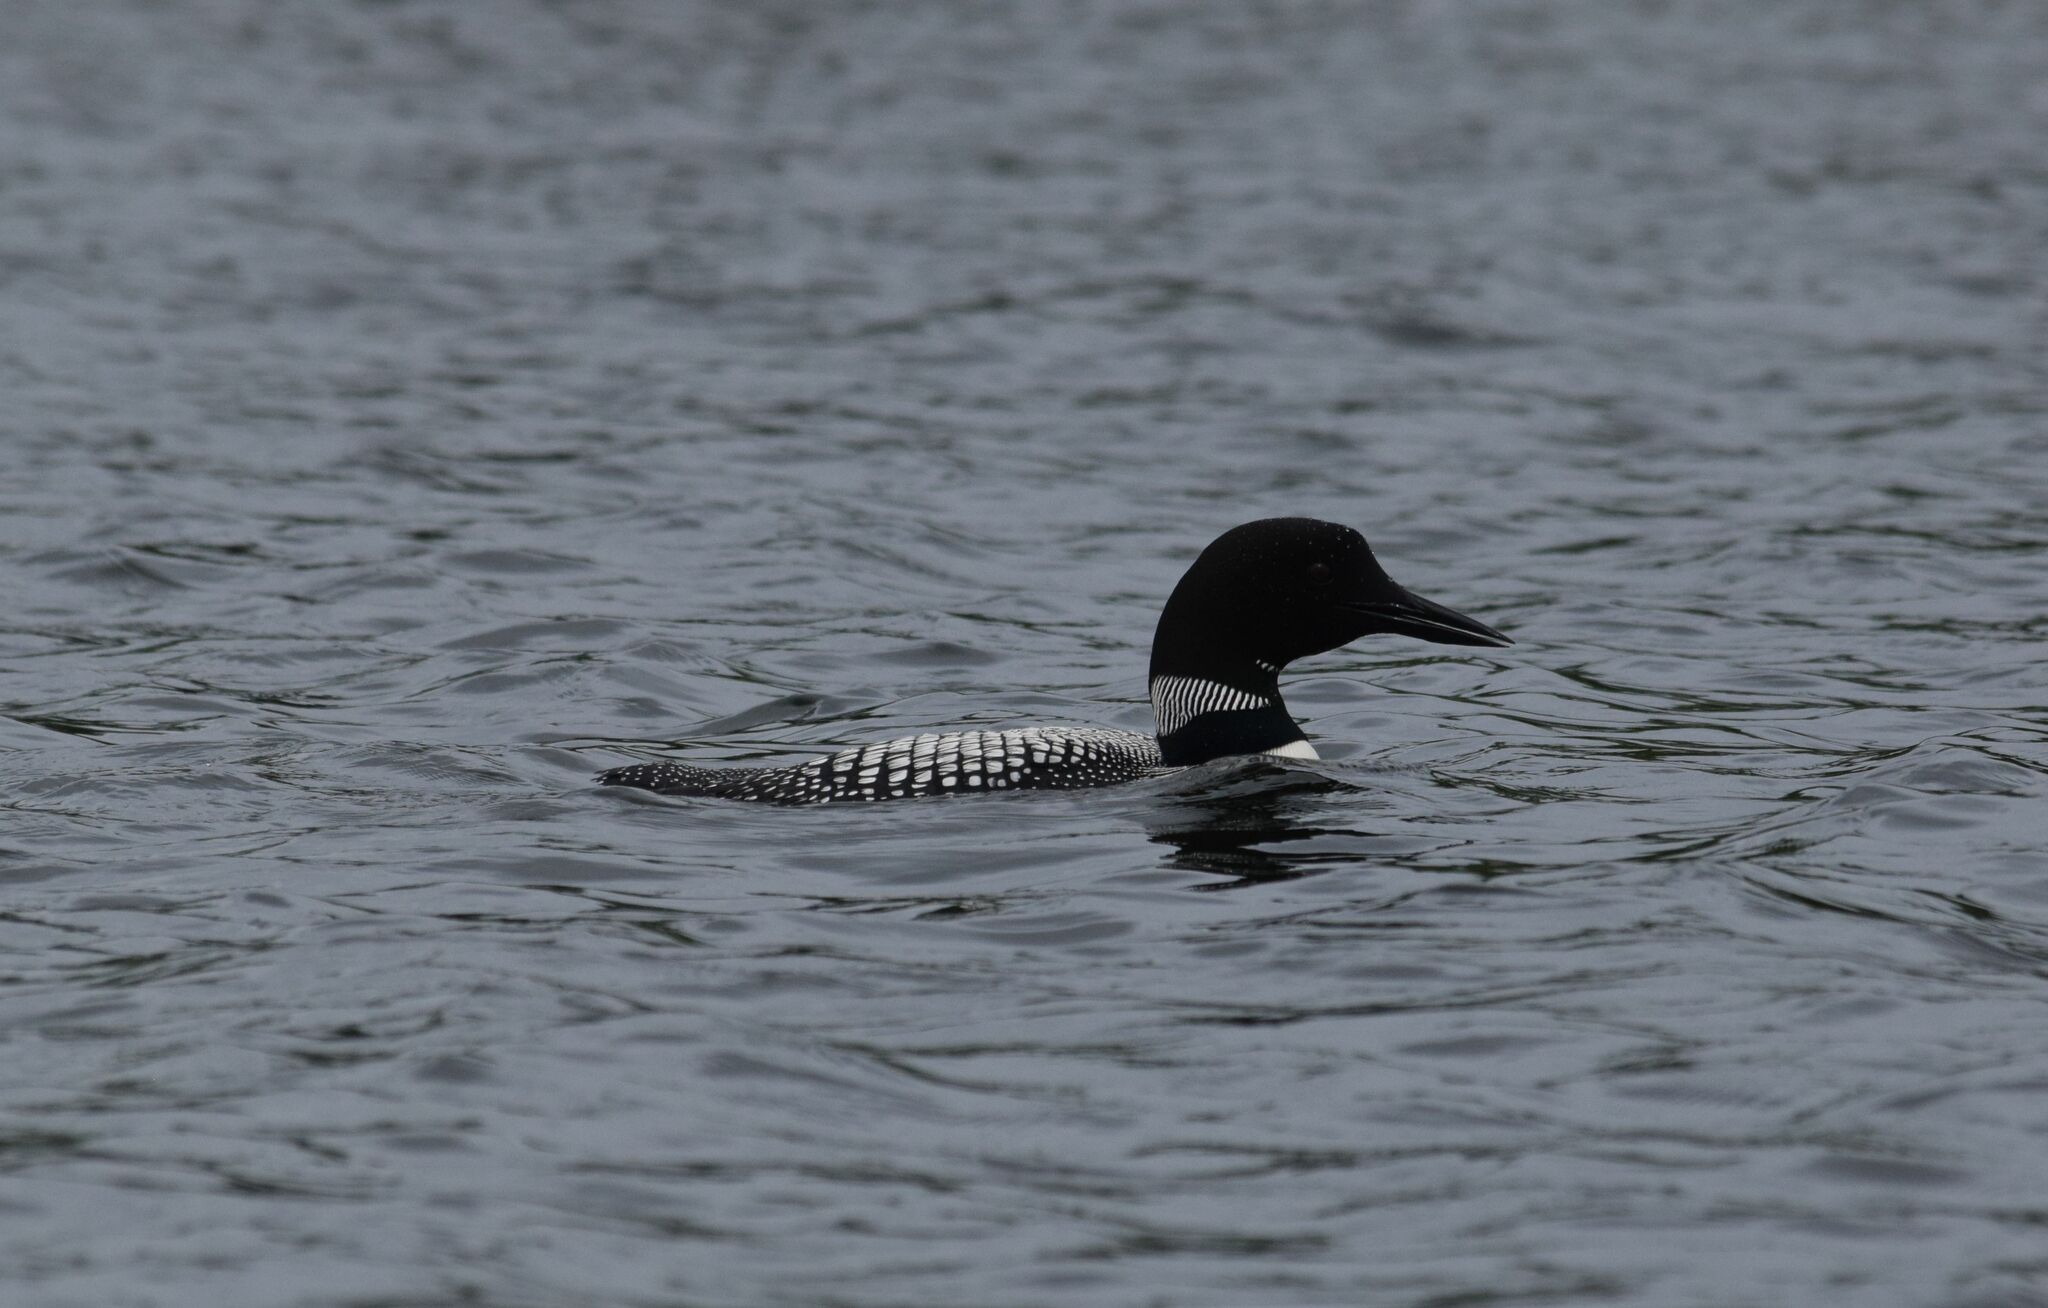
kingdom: Animalia
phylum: Chordata
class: Aves
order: Gaviiformes
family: Gaviidae
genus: Gavia
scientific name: Gavia immer
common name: Common loon
